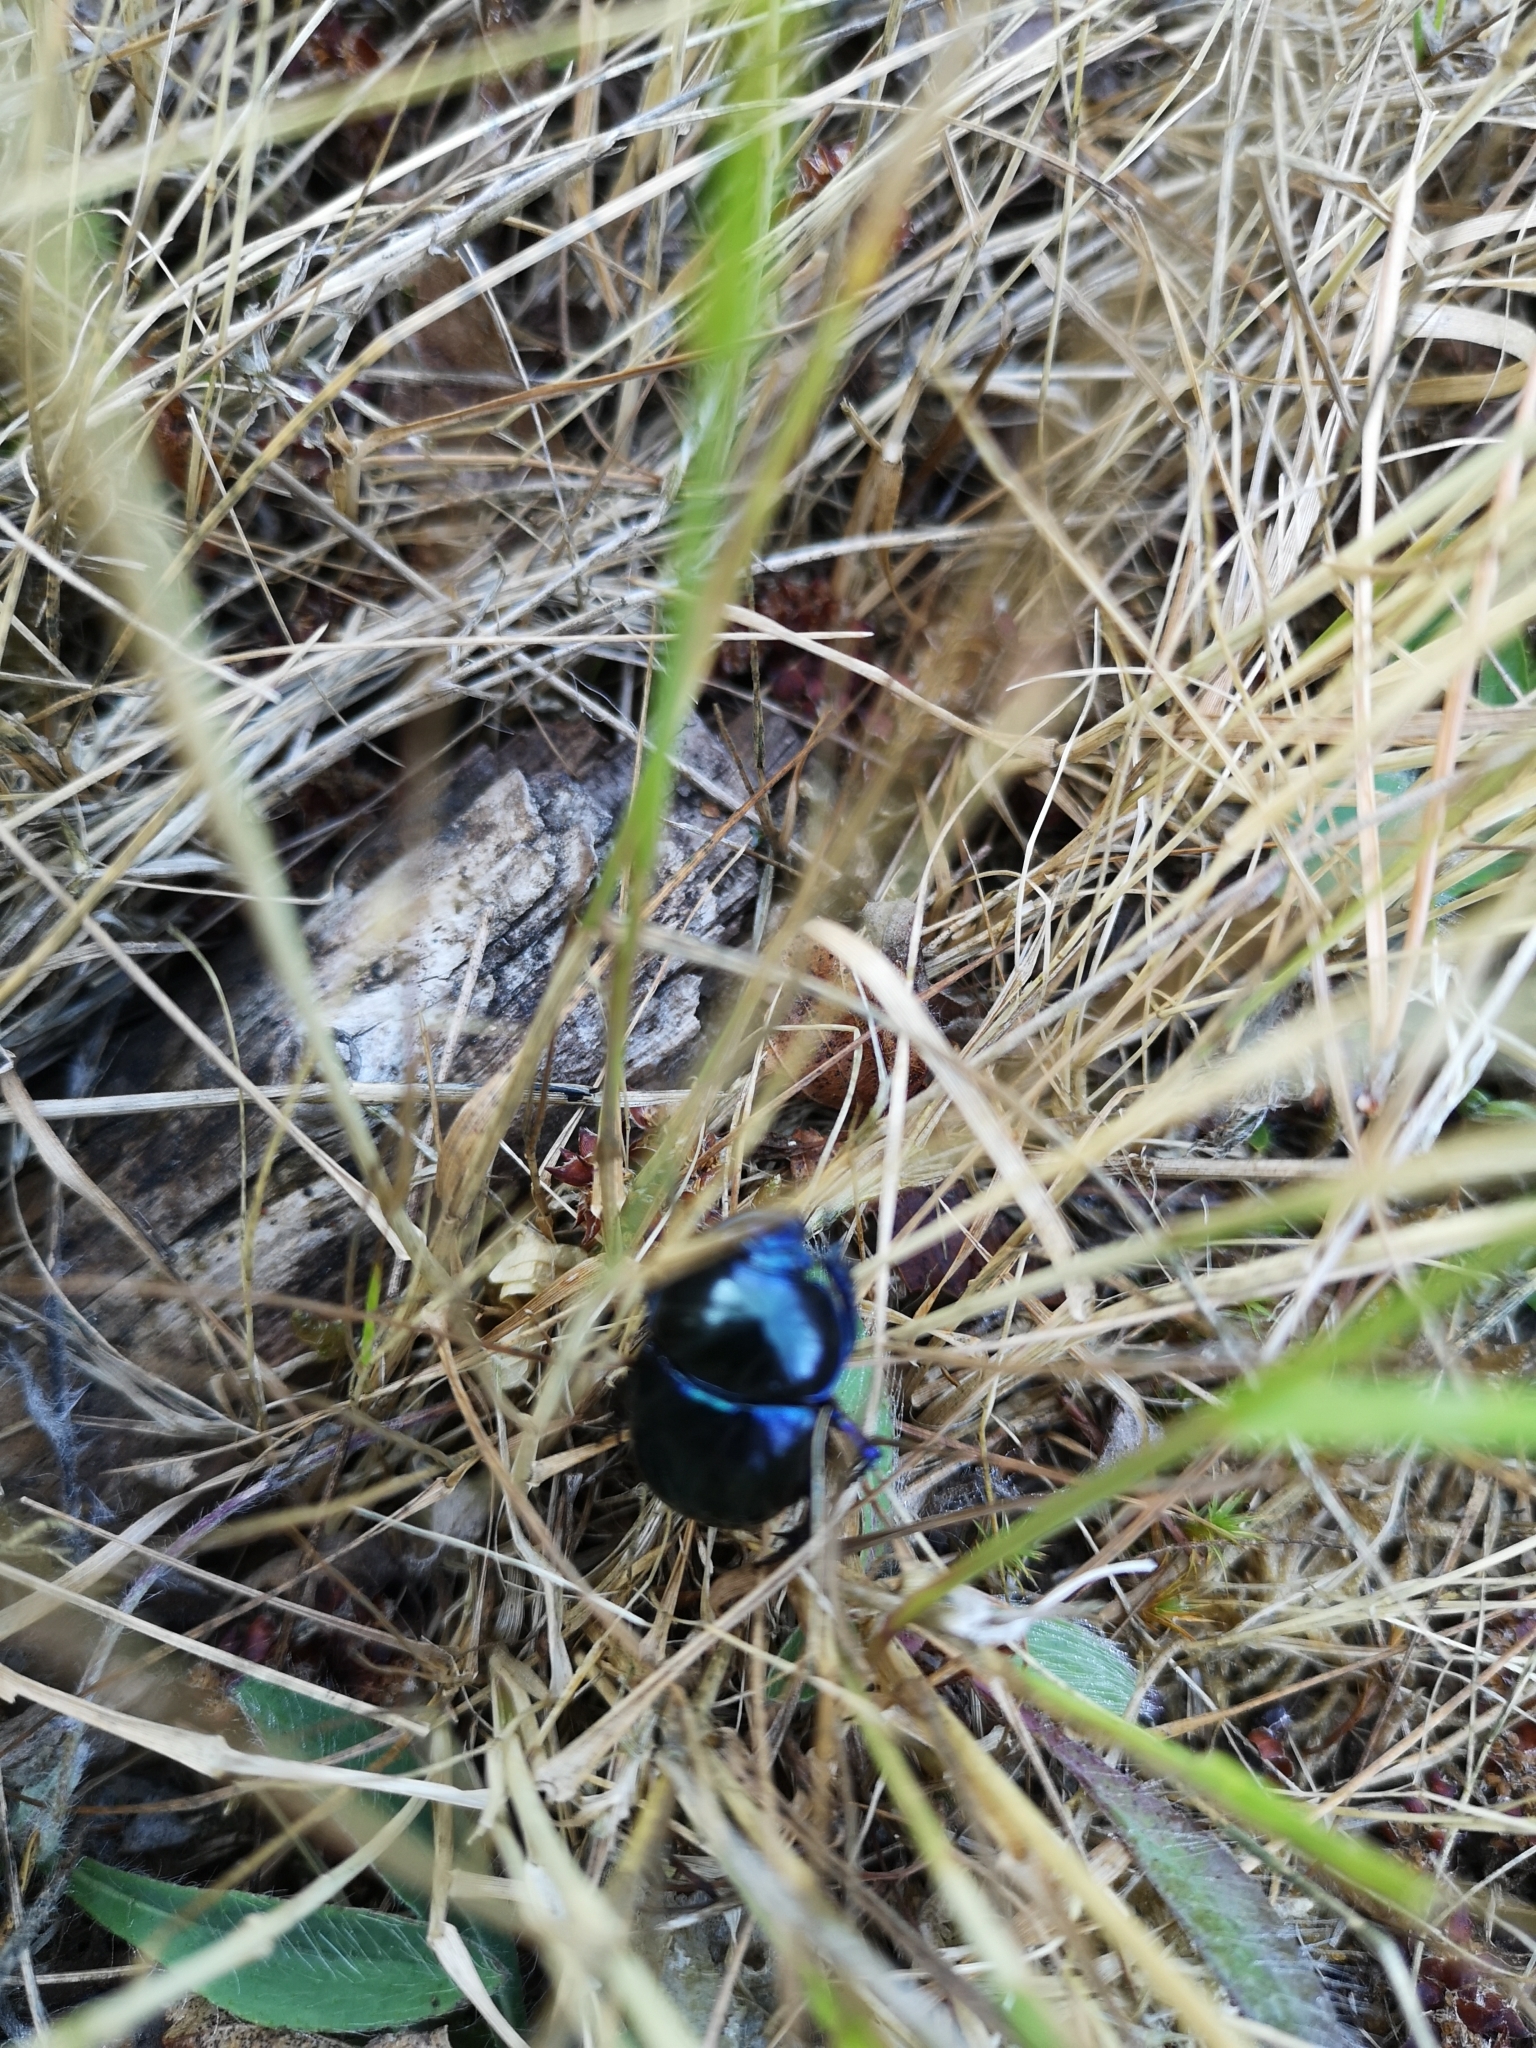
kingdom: Animalia
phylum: Arthropoda
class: Insecta
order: Coleoptera
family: Geotrupidae
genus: Trypocopris
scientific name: Trypocopris vernalis
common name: Spring dumbledor
